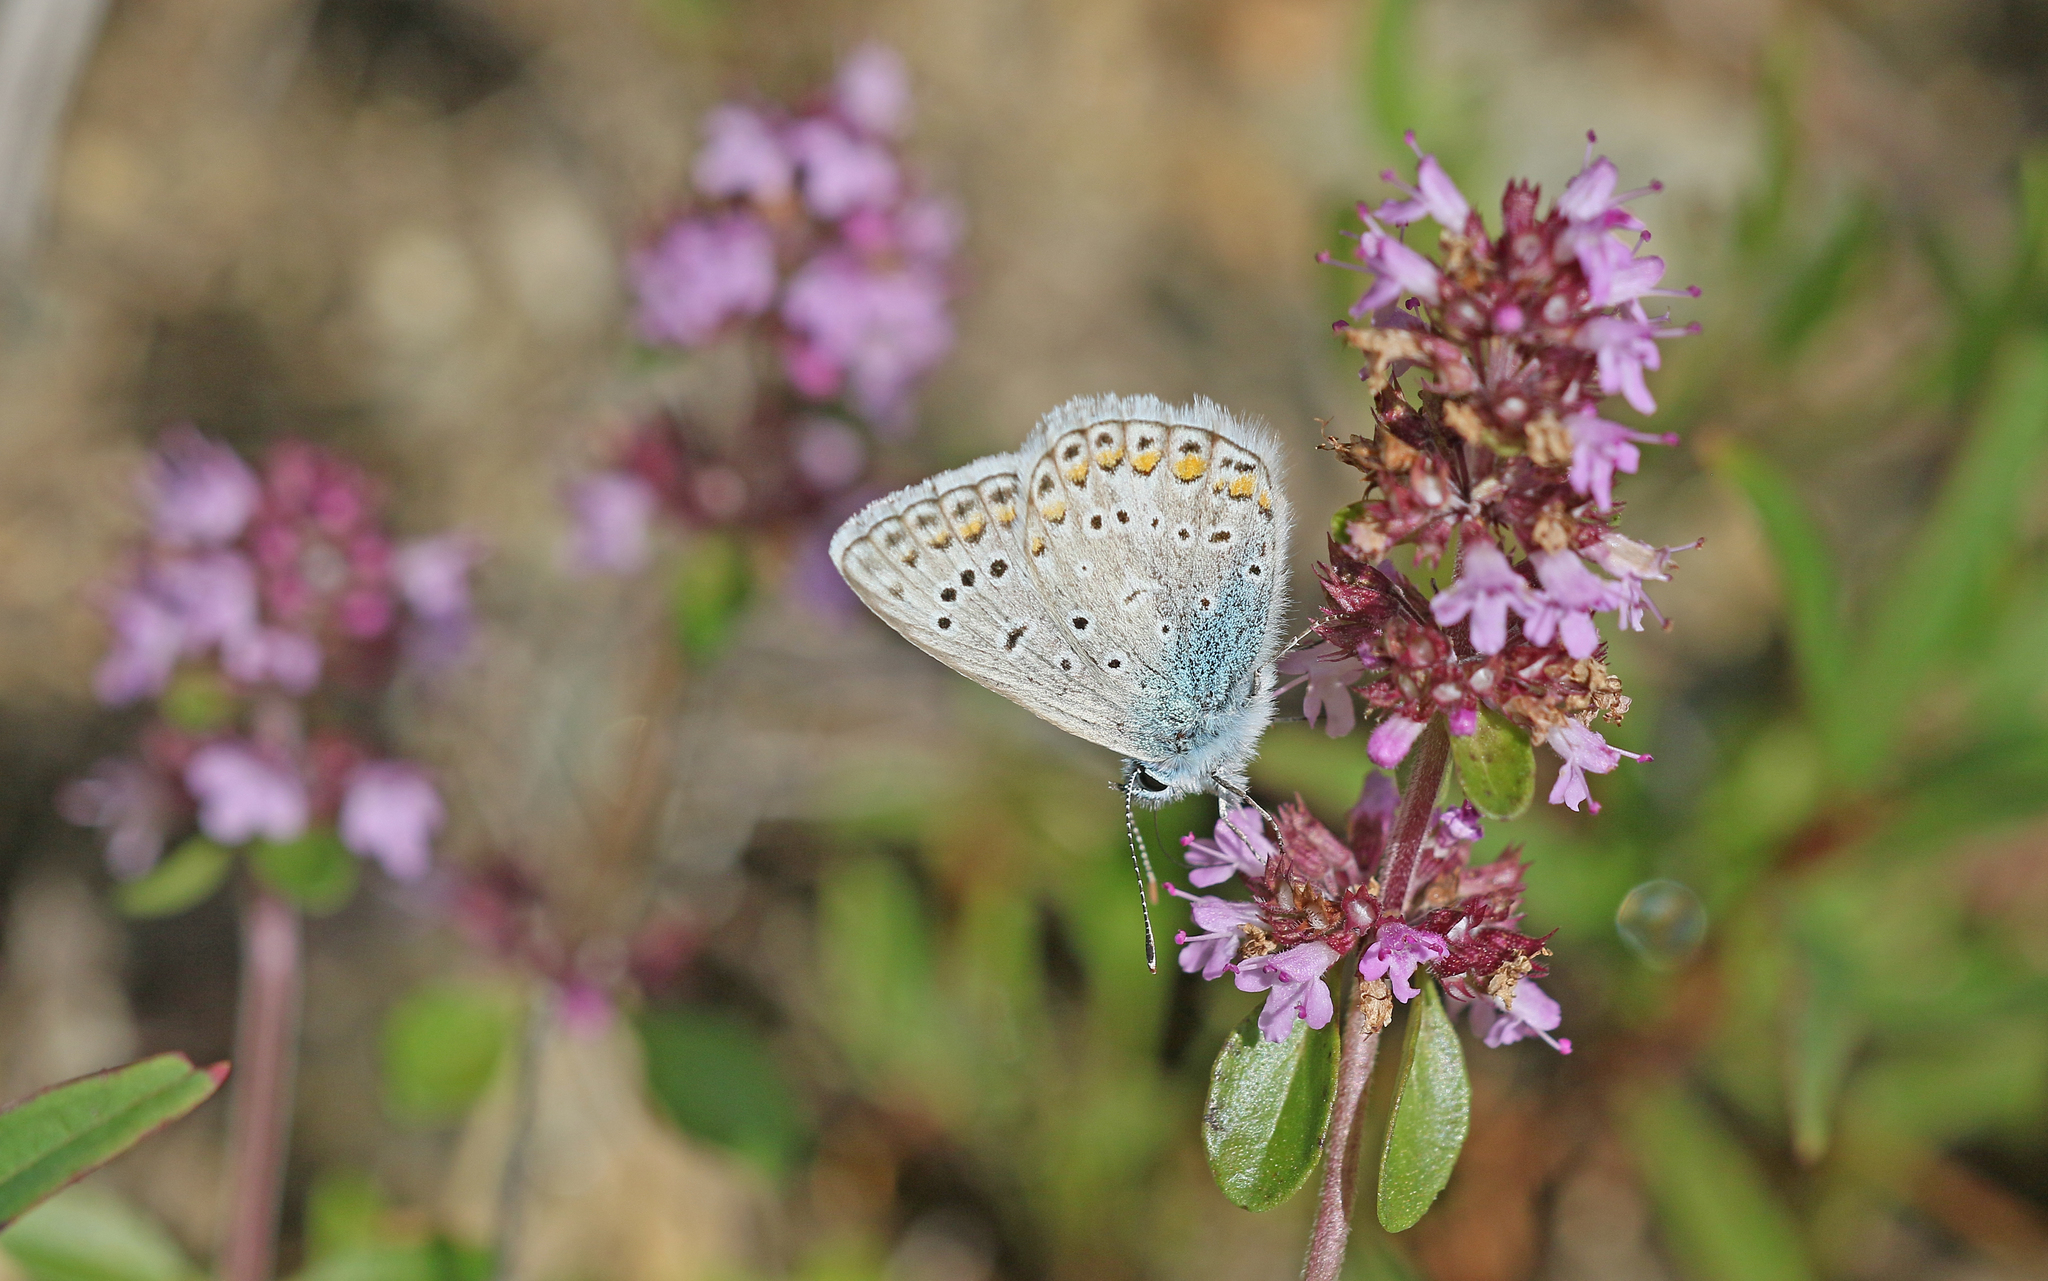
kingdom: Animalia
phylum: Arthropoda
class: Insecta
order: Lepidoptera
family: Lycaenidae
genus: Polyommatus
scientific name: Polyommatus icarus
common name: Common blue
